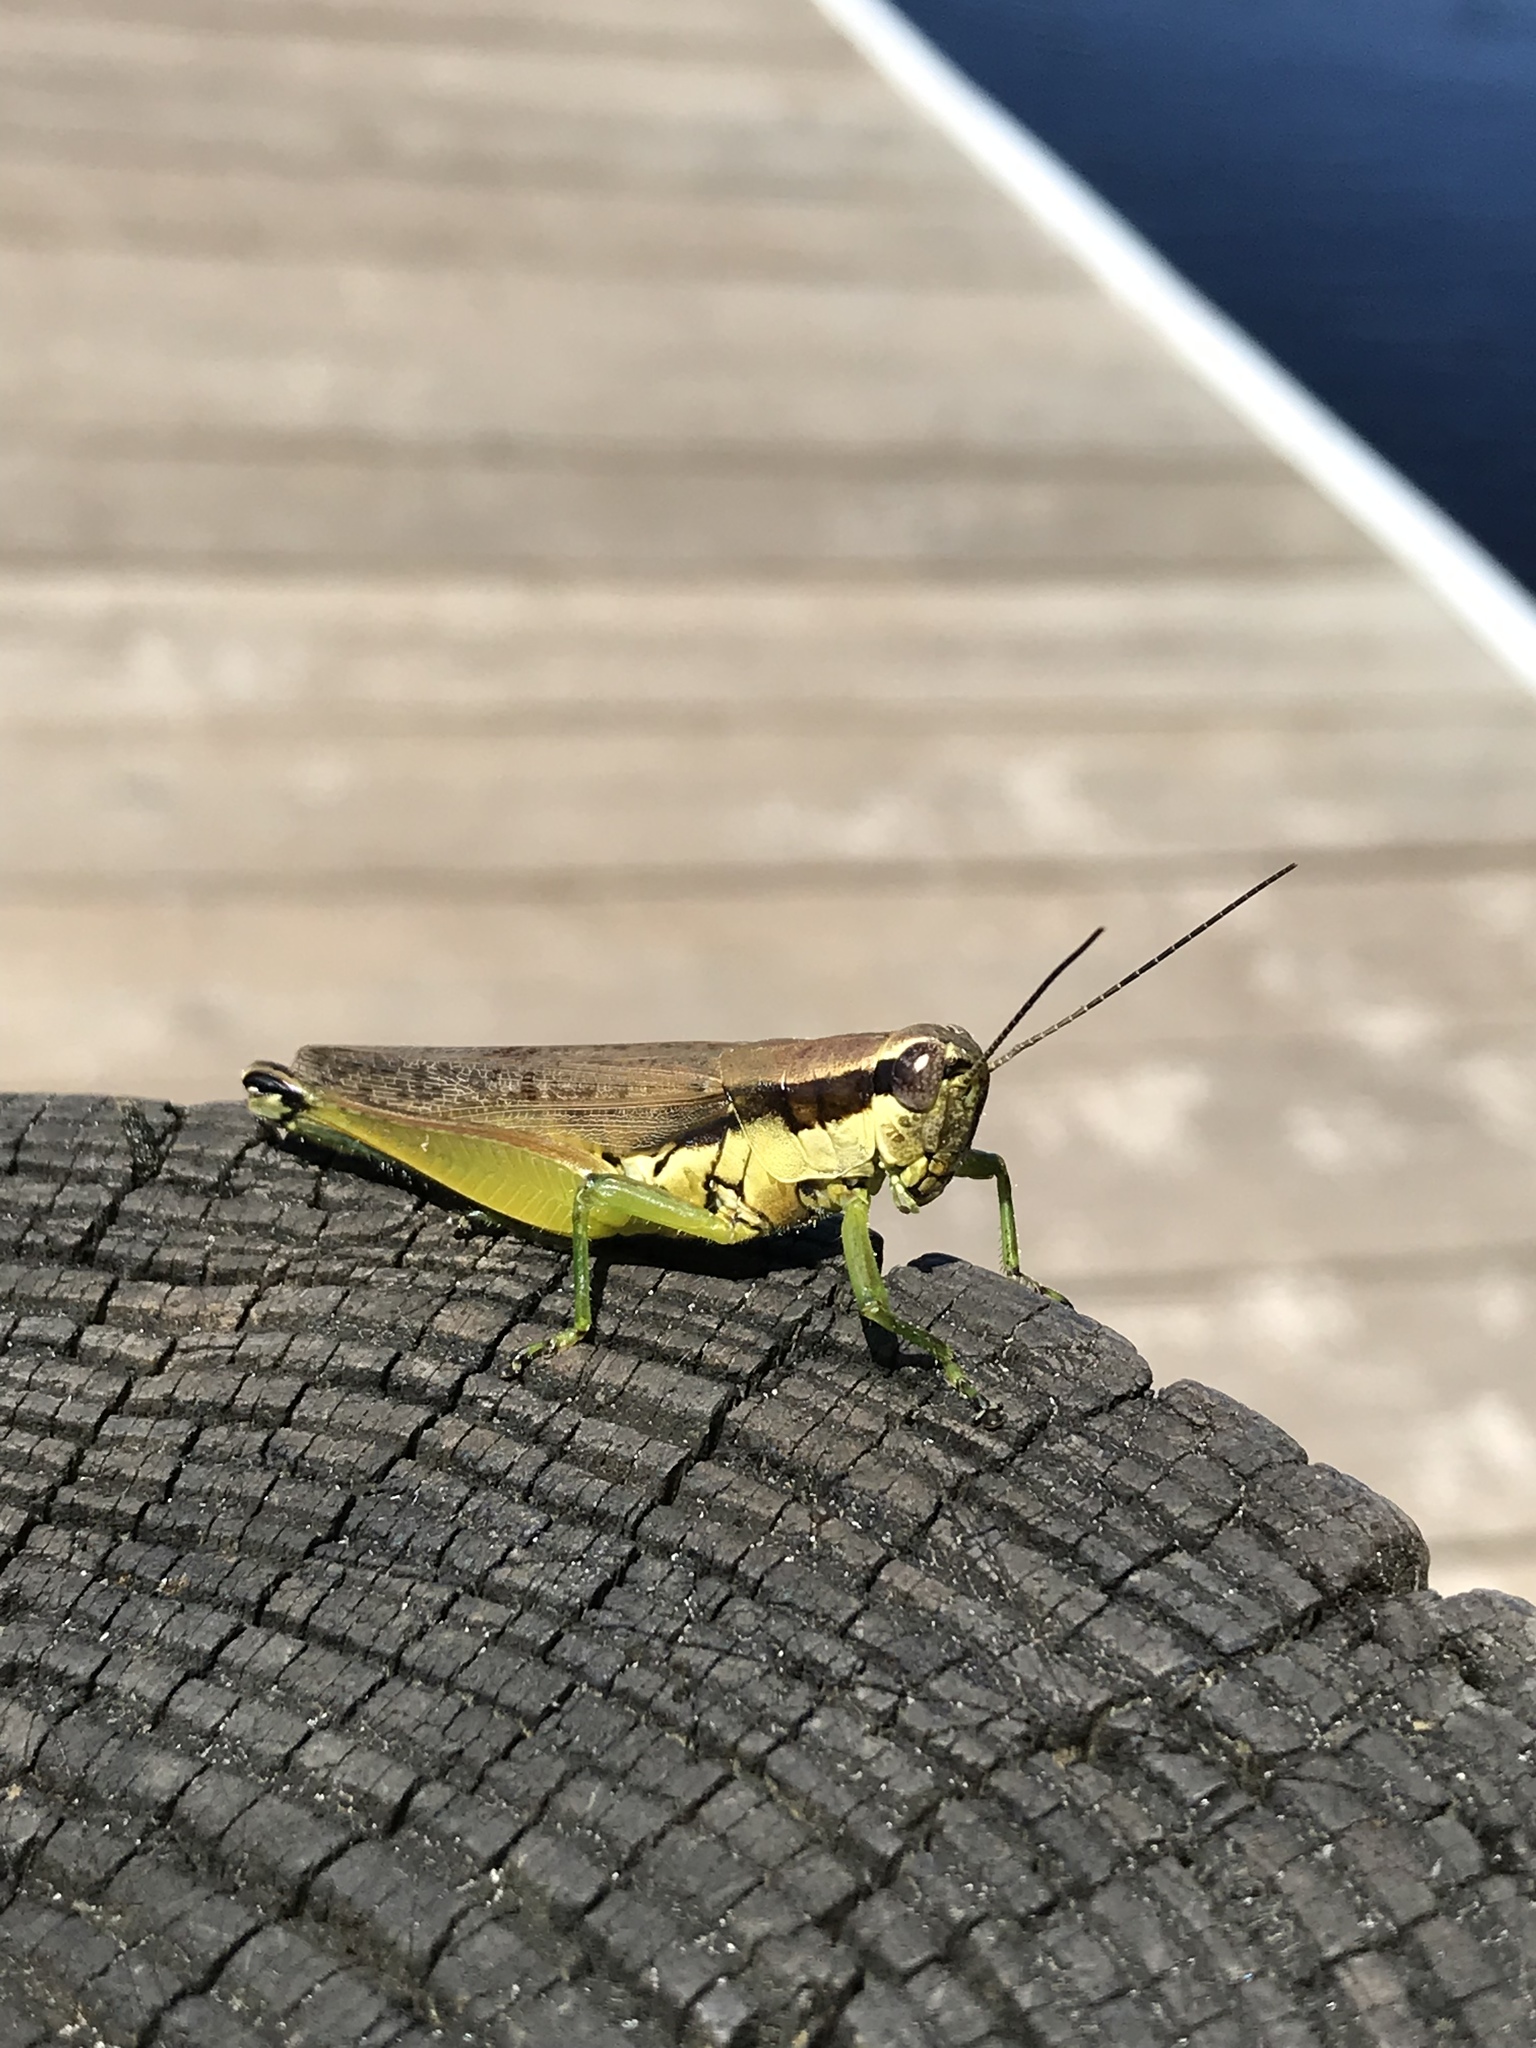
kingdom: Animalia
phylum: Arthropoda
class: Insecta
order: Orthoptera
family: Acrididae
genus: Paroxya
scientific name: Paroxya clavuligera
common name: Olive-green swamp grasshopper
